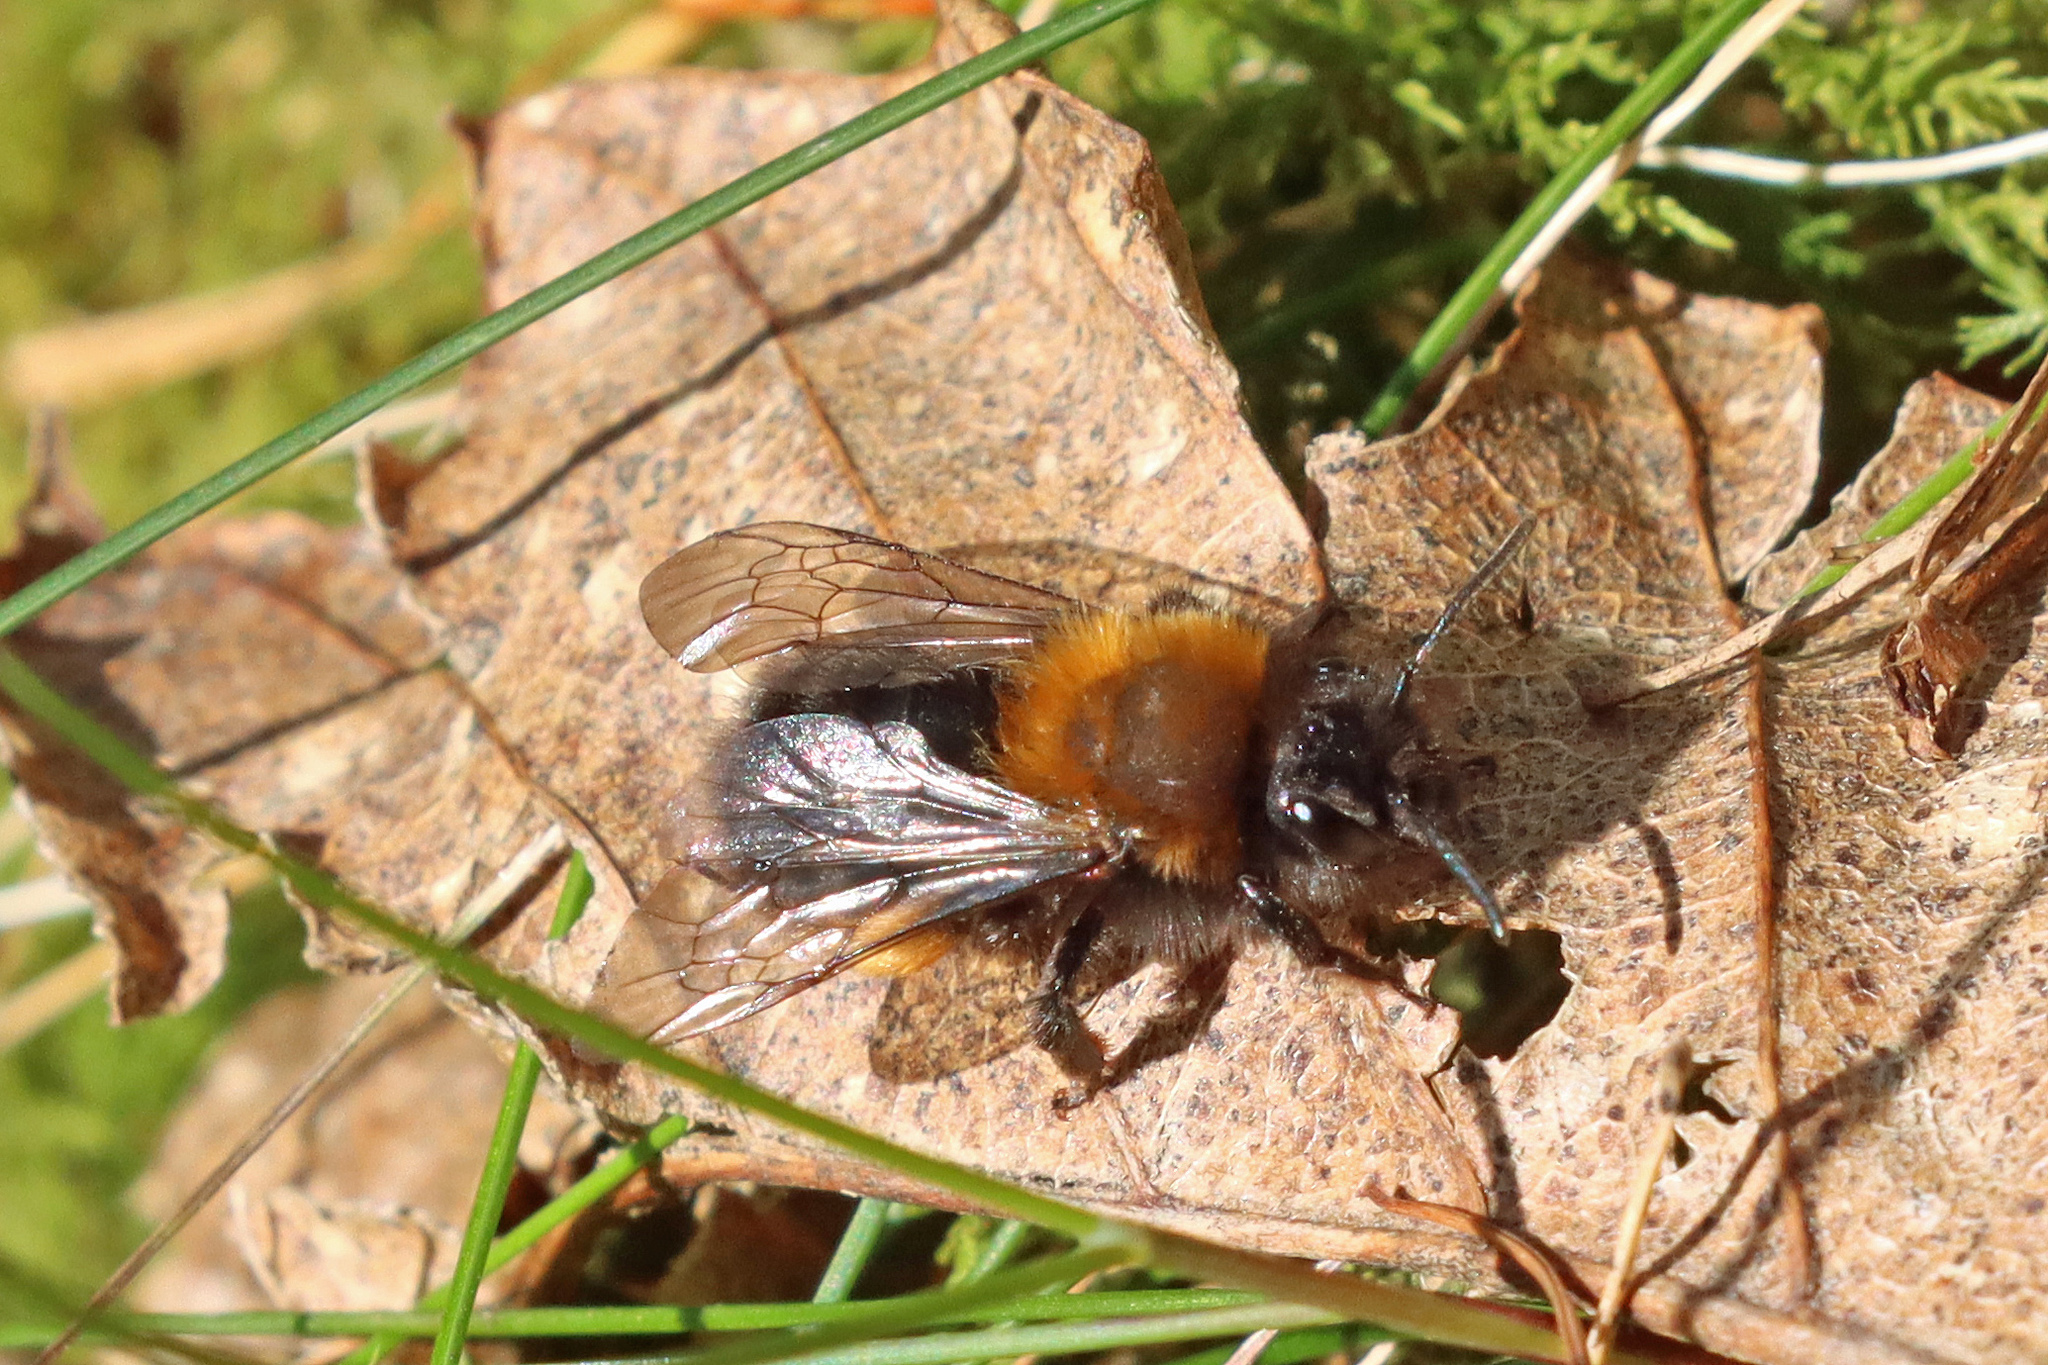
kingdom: Animalia
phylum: Arthropoda
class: Insecta
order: Hymenoptera
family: Andrenidae
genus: Andrena
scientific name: Andrena clarkella
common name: Clarke's mining bee
